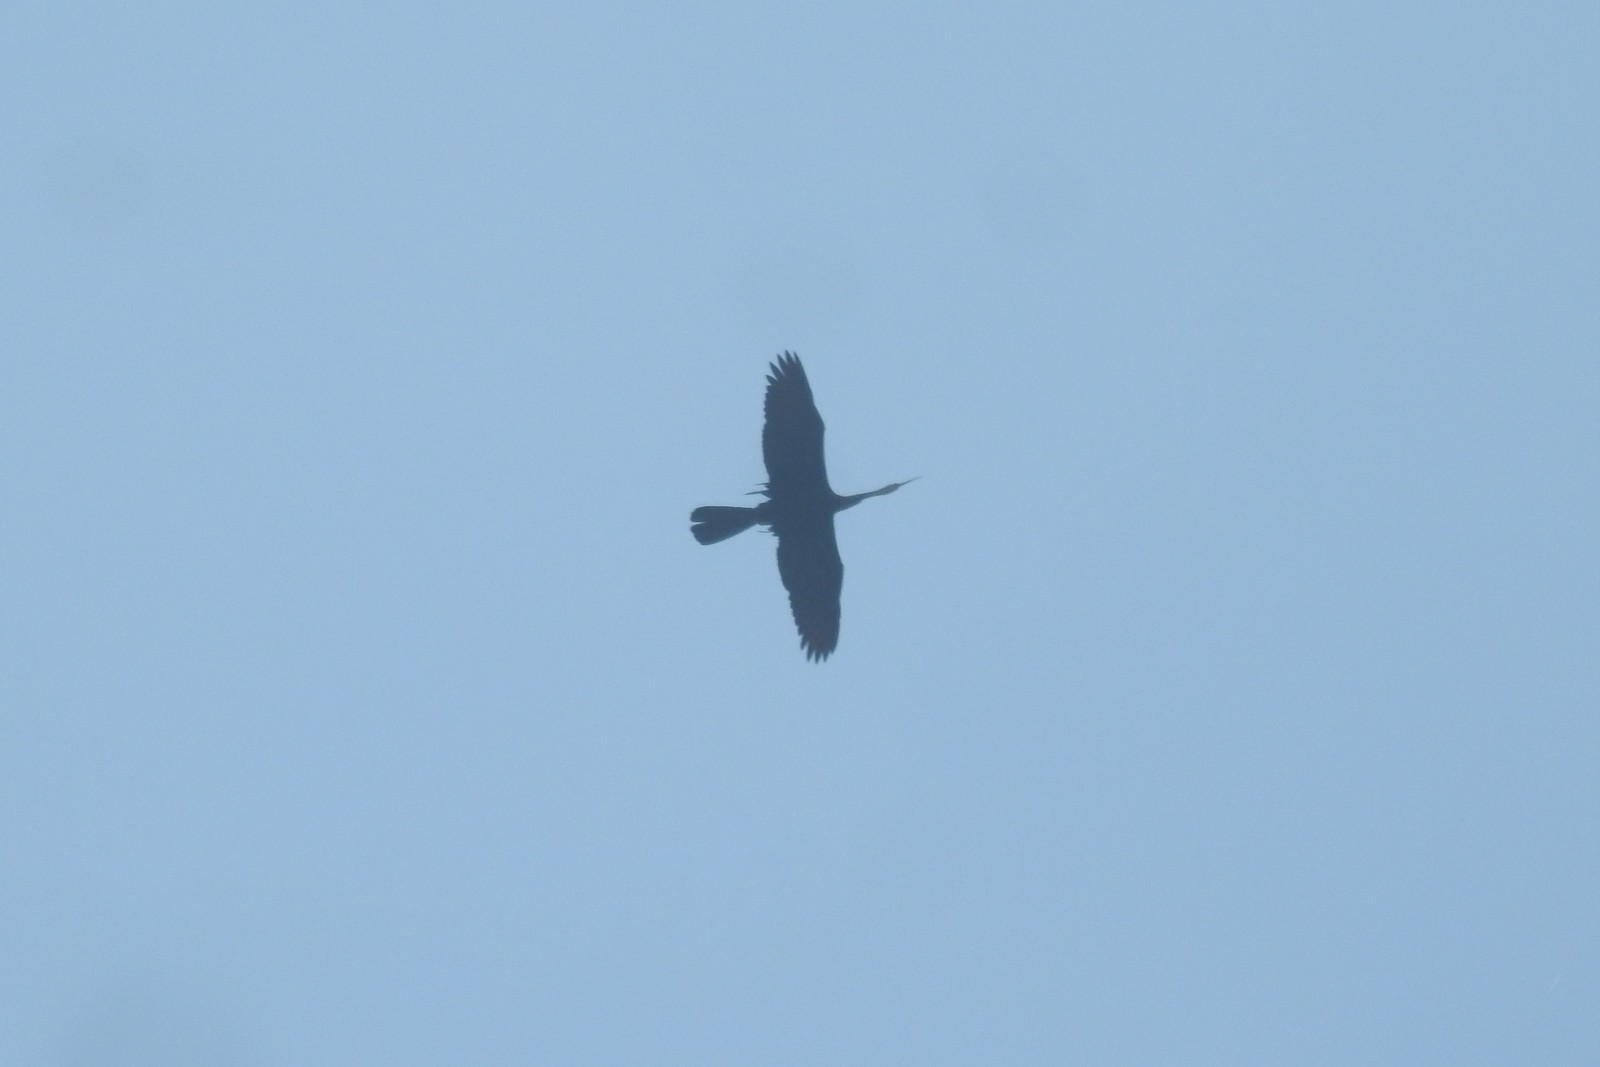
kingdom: Animalia
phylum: Chordata
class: Aves
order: Suliformes
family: Anhingidae
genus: Anhinga
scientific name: Anhinga melanogaster
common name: Oriental darter
